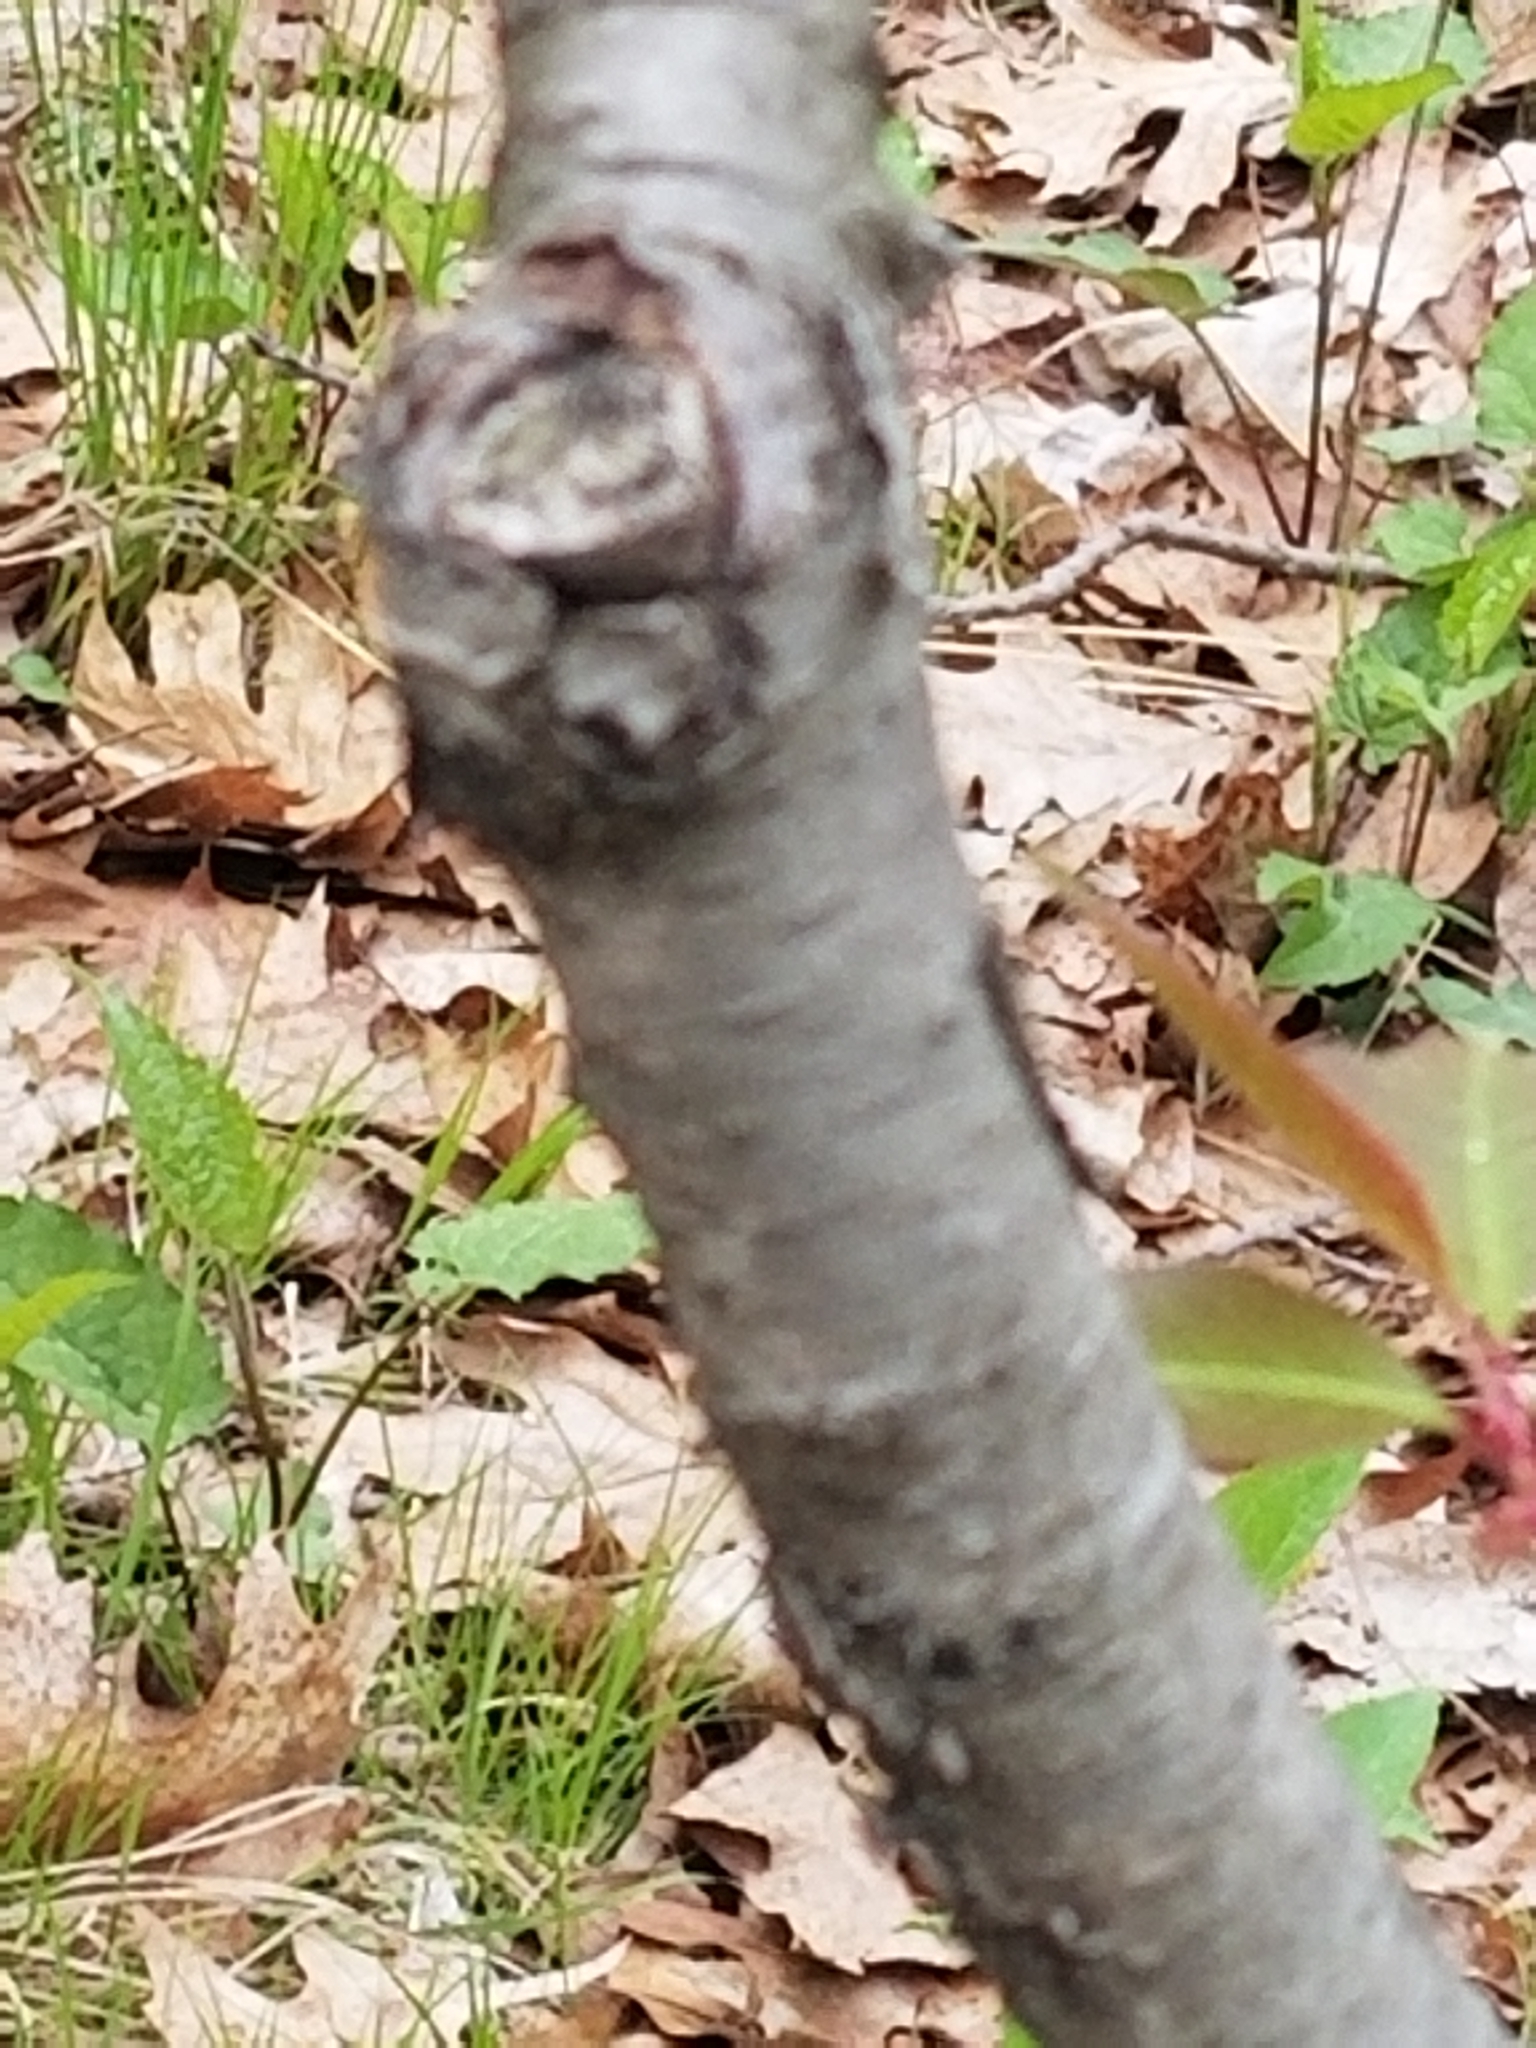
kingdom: Plantae
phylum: Tracheophyta
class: Magnoliopsida
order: Rosales
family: Rosaceae
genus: Prunus
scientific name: Prunus serotina
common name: Black cherry
